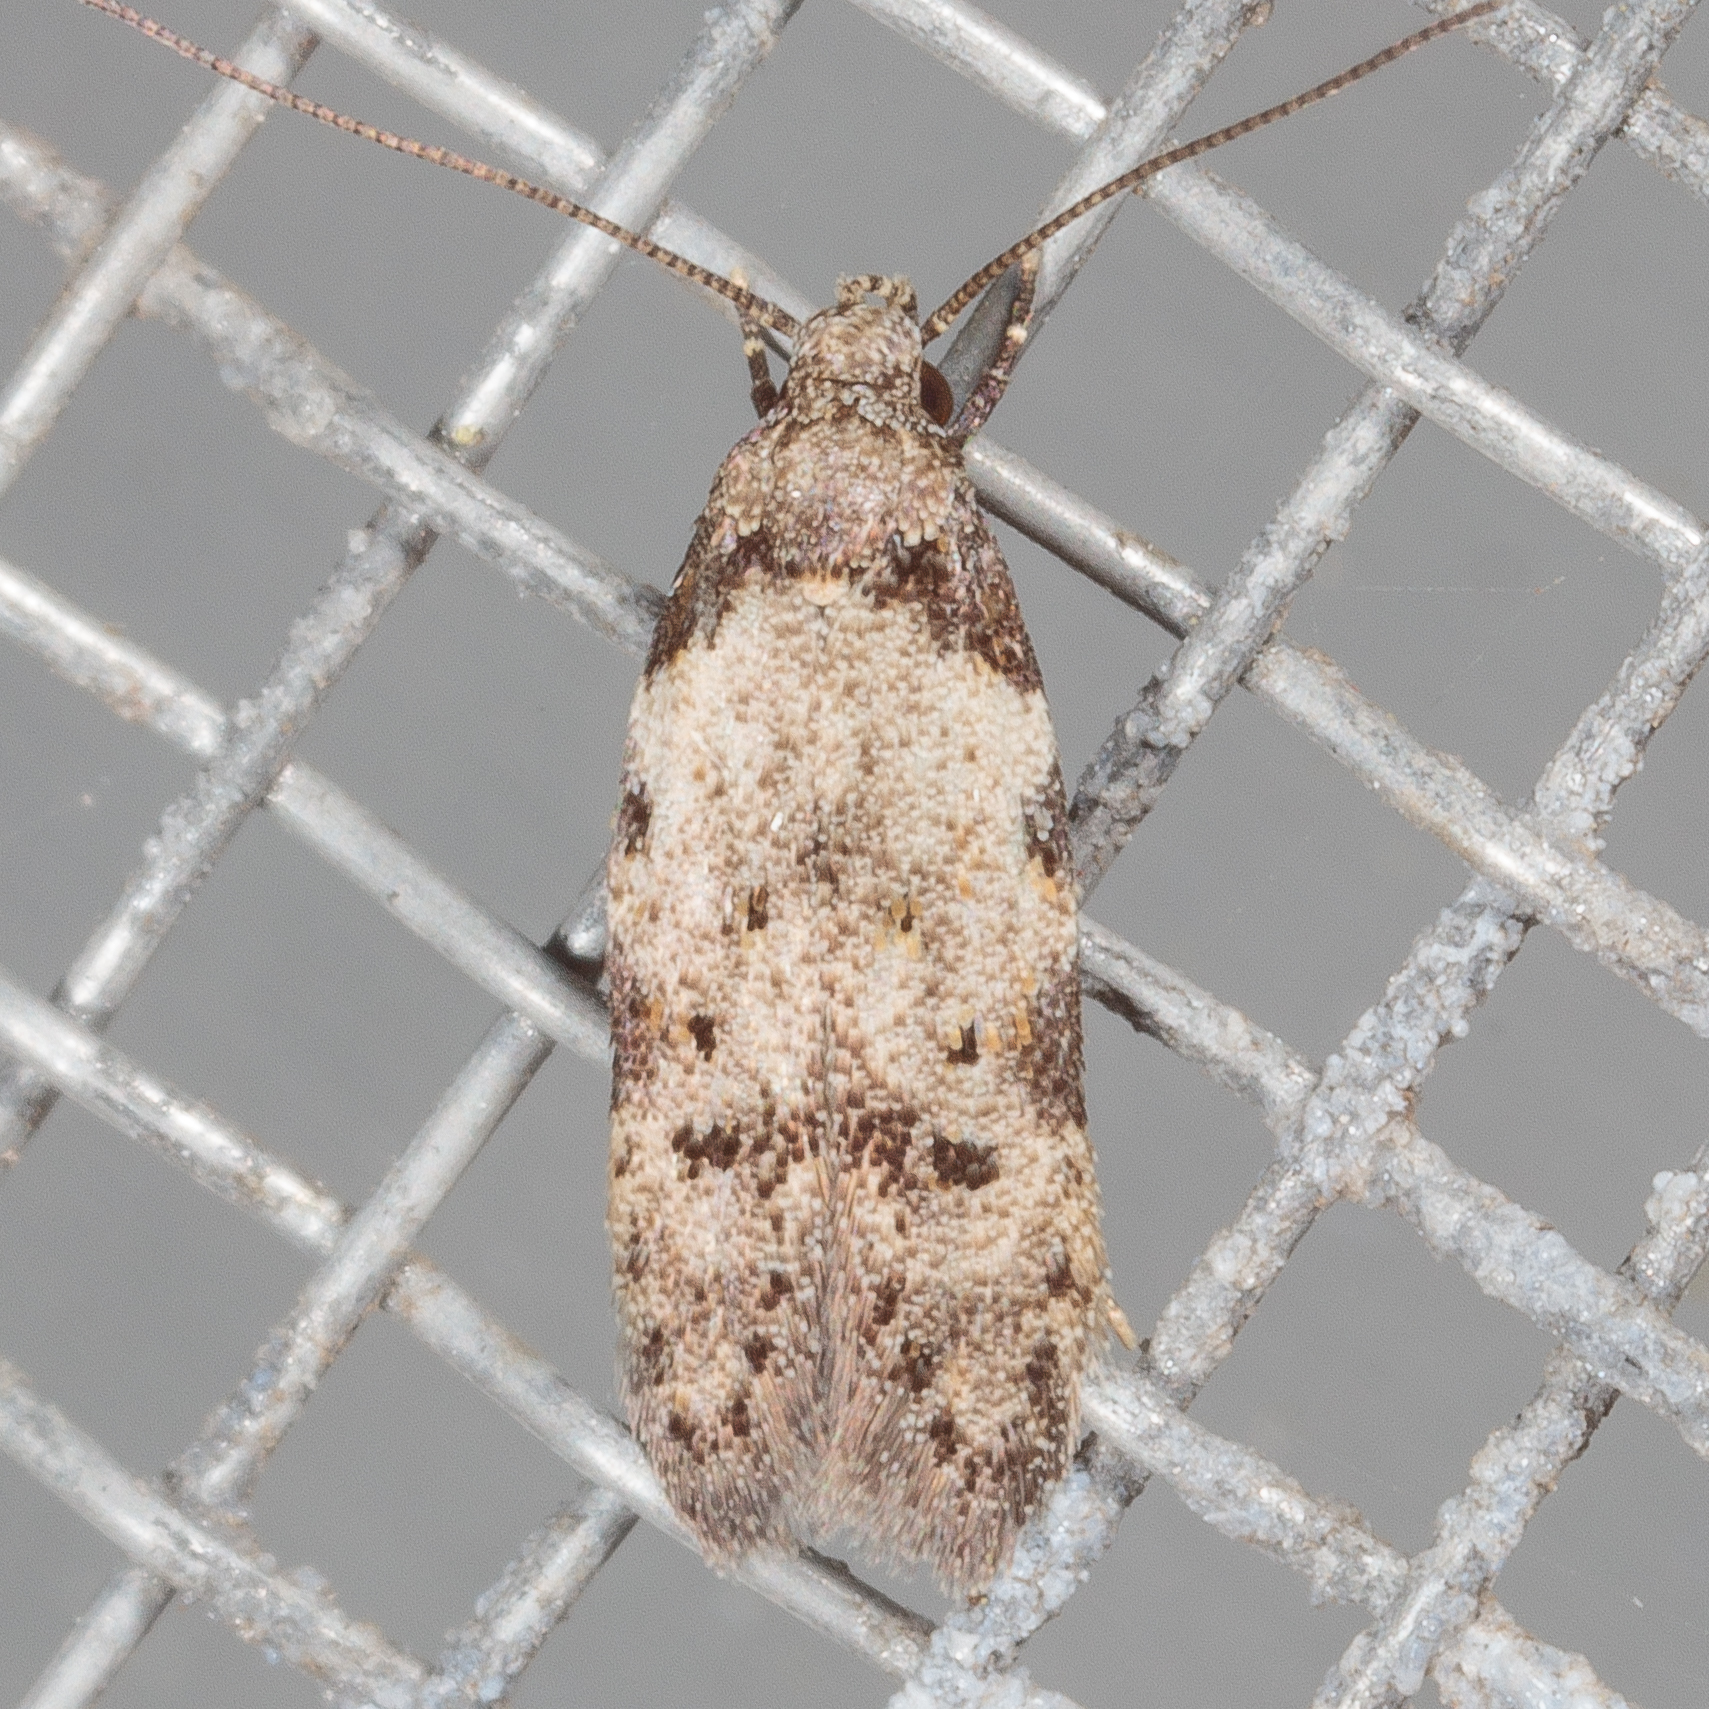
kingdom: Animalia
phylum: Arthropoda
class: Insecta
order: Lepidoptera
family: Autostichidae
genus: Taygete
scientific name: Taygete attributella
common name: Triangle-marked twirler moth
